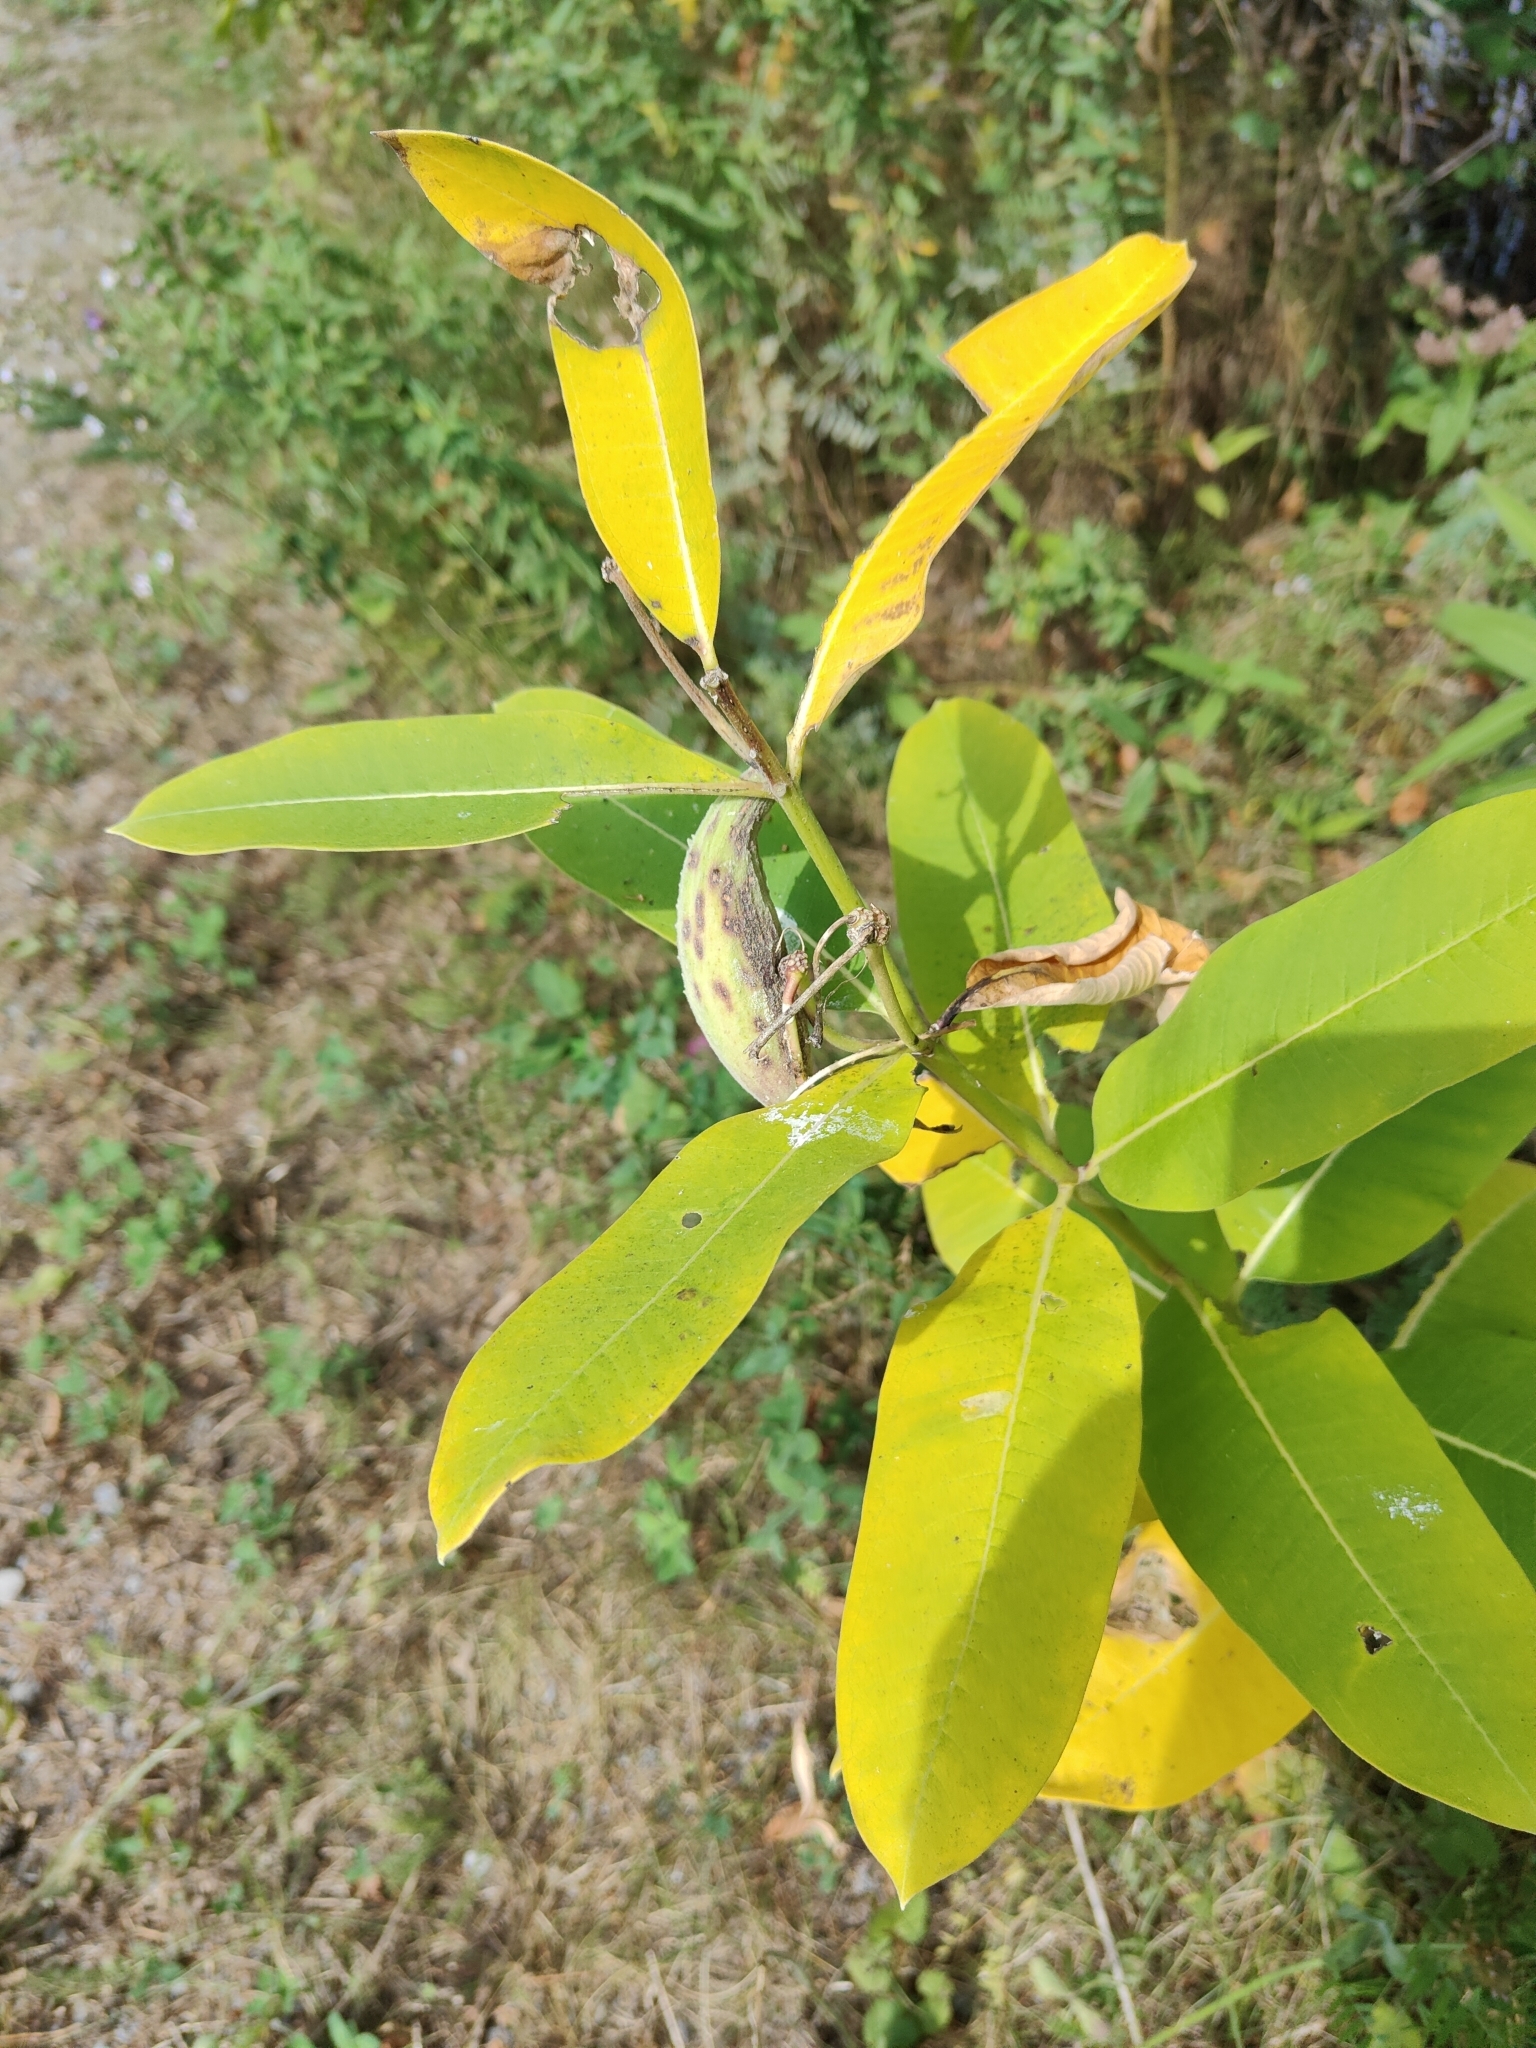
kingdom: Plantae
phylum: Tracheophyta
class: Magnoliopsida
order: Gentianales
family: Apocynaceae
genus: Asclepias
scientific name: Asclepias syriaca
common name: Common milkweed
